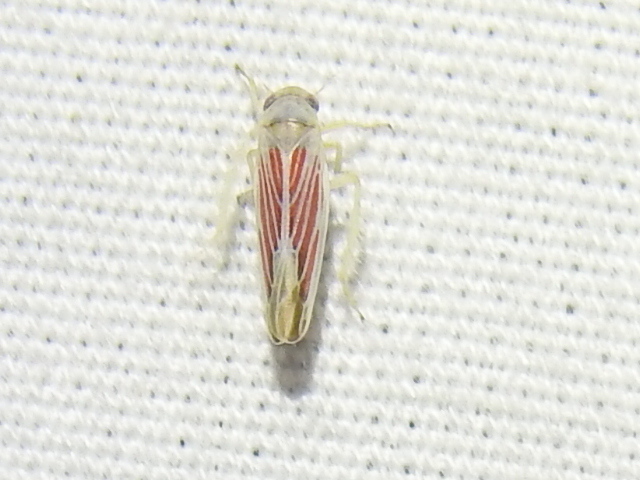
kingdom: Animalia
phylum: Arthropoda
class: Insecta
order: Hemiptera
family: Cicadellidae
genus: Balclutha
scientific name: Balclutha rubrostriata
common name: Red-streaked leafhopper
